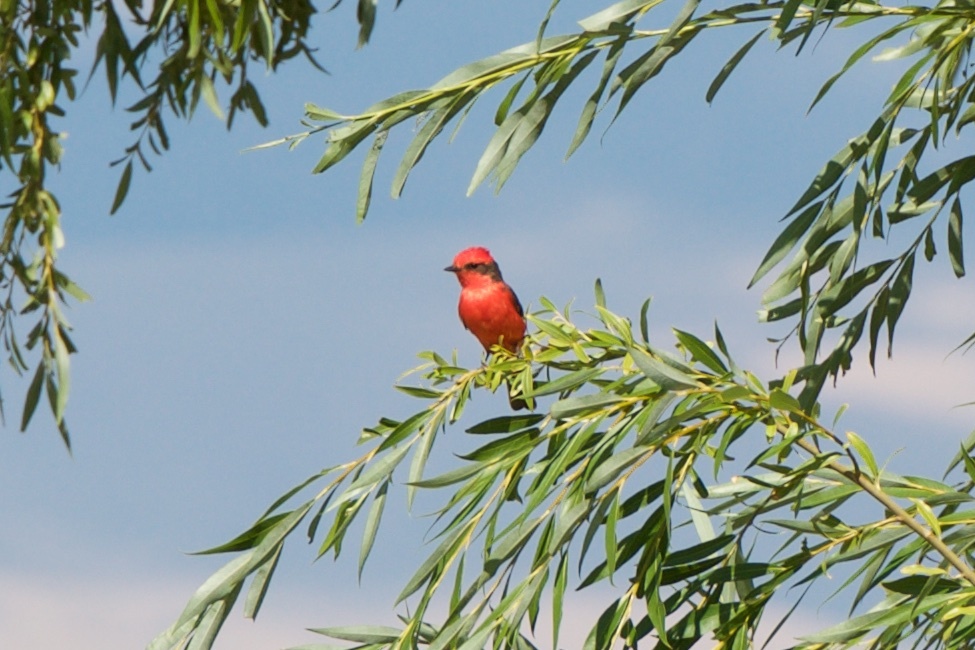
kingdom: Animalia
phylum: Chordata
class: Aves
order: Passeriformes
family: Tyrannidae
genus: Pyrocephalus
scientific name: Pyrocephalus rubinus
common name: Vermilion flycatcher
